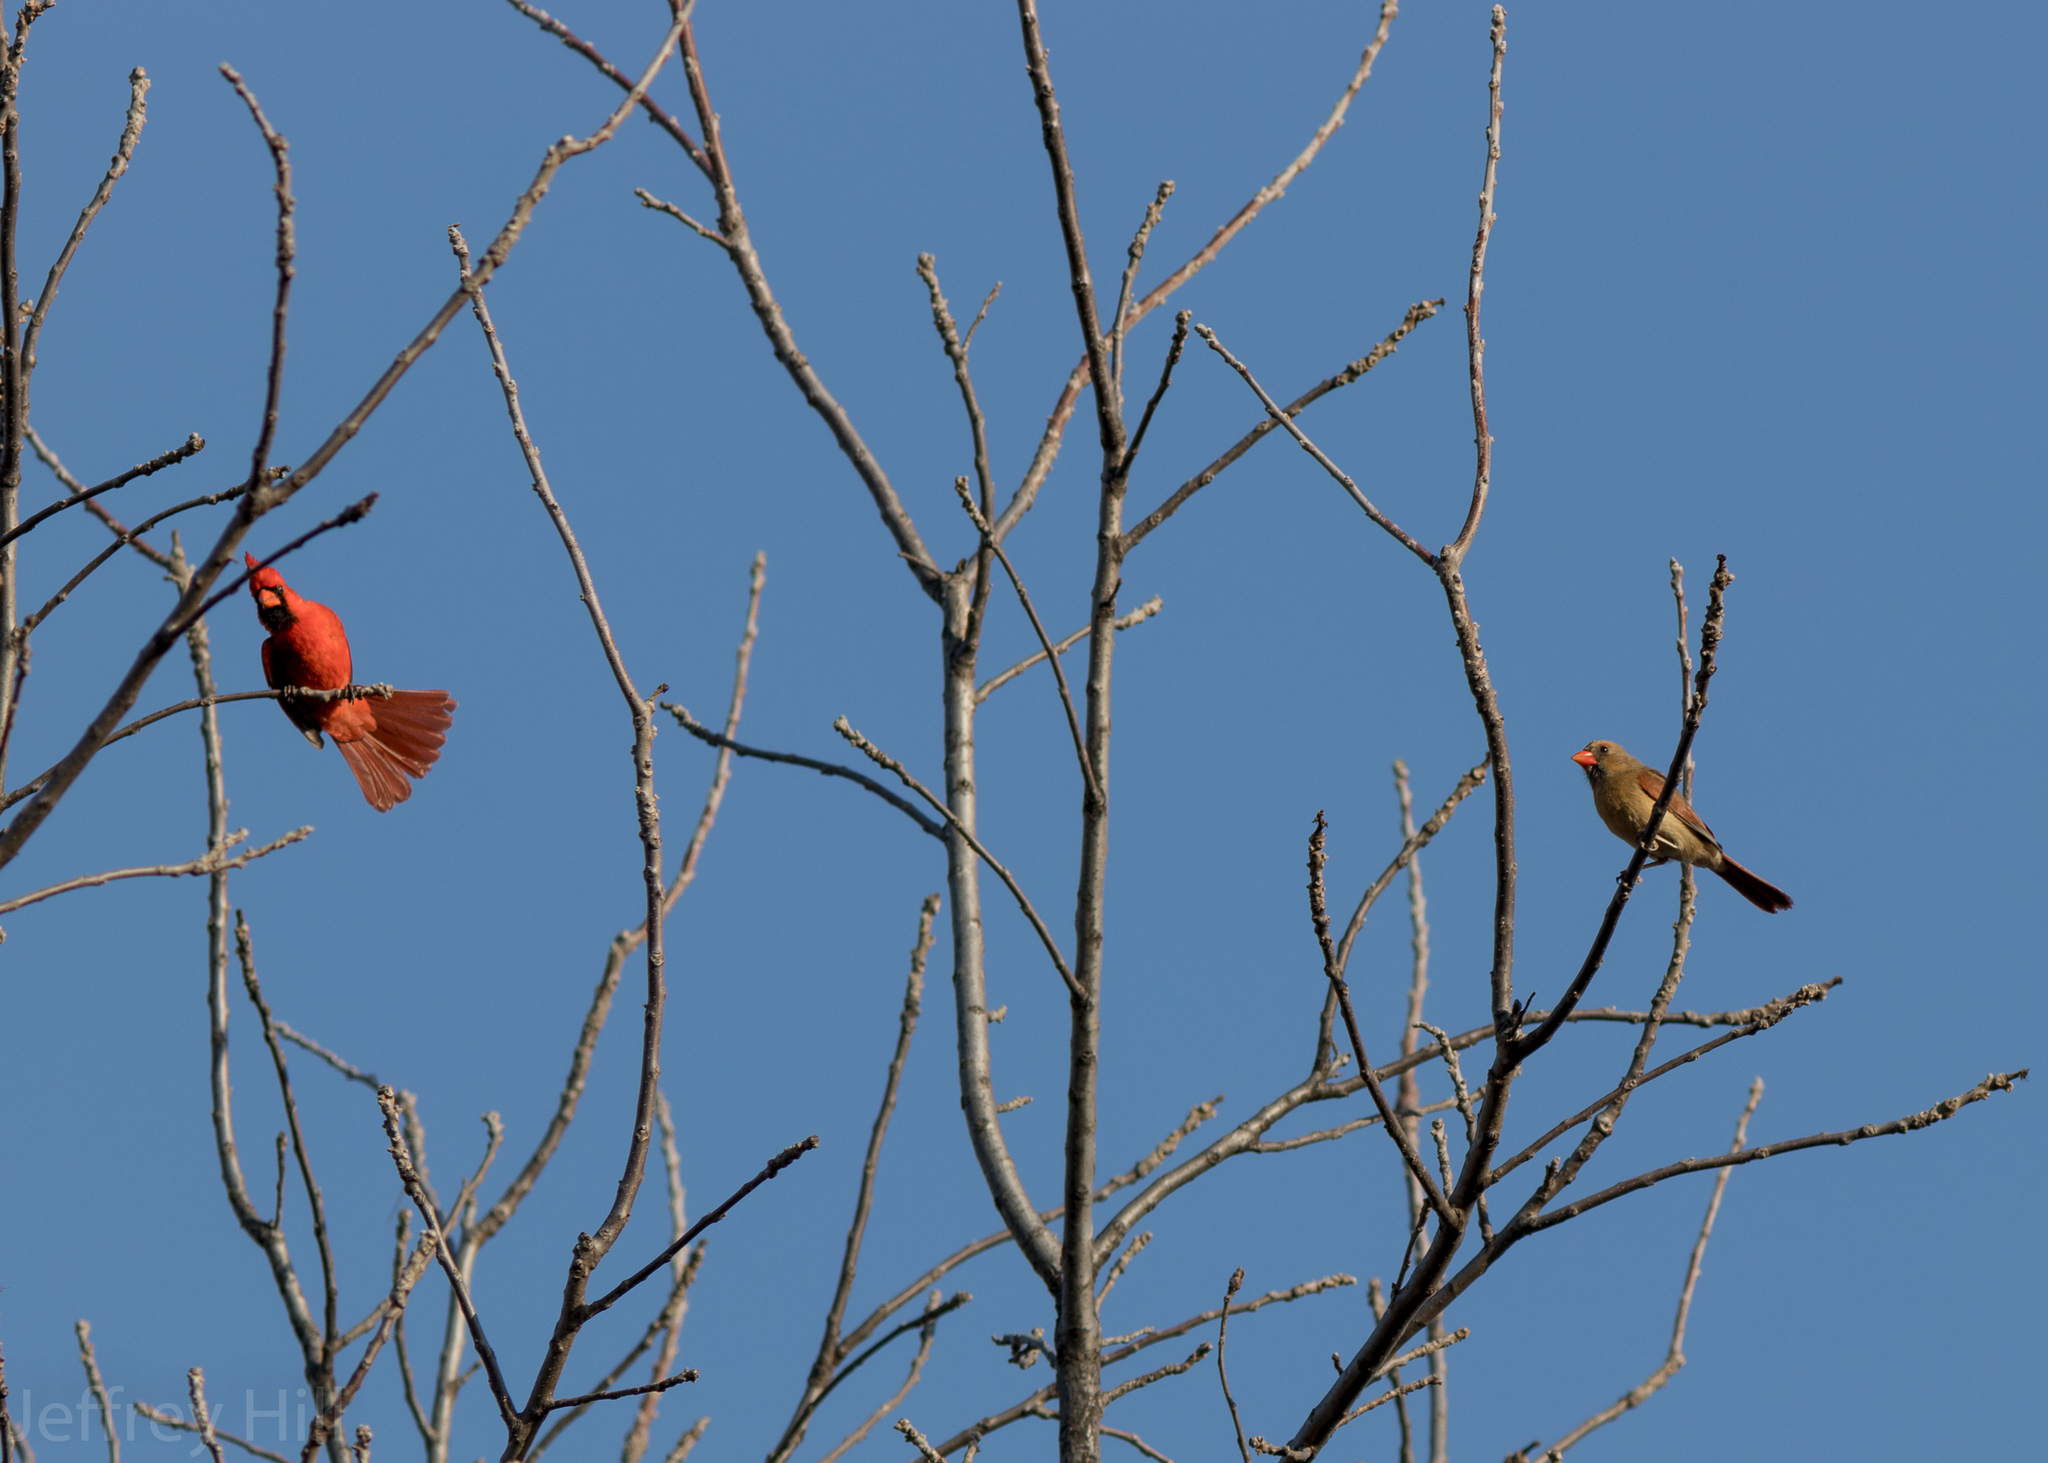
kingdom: Animalia
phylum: Chordata
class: Aves
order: Passeriformes
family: Cardinalidae
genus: Cardinalis
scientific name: Cardinalis cardinalis
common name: Northern cardinal
